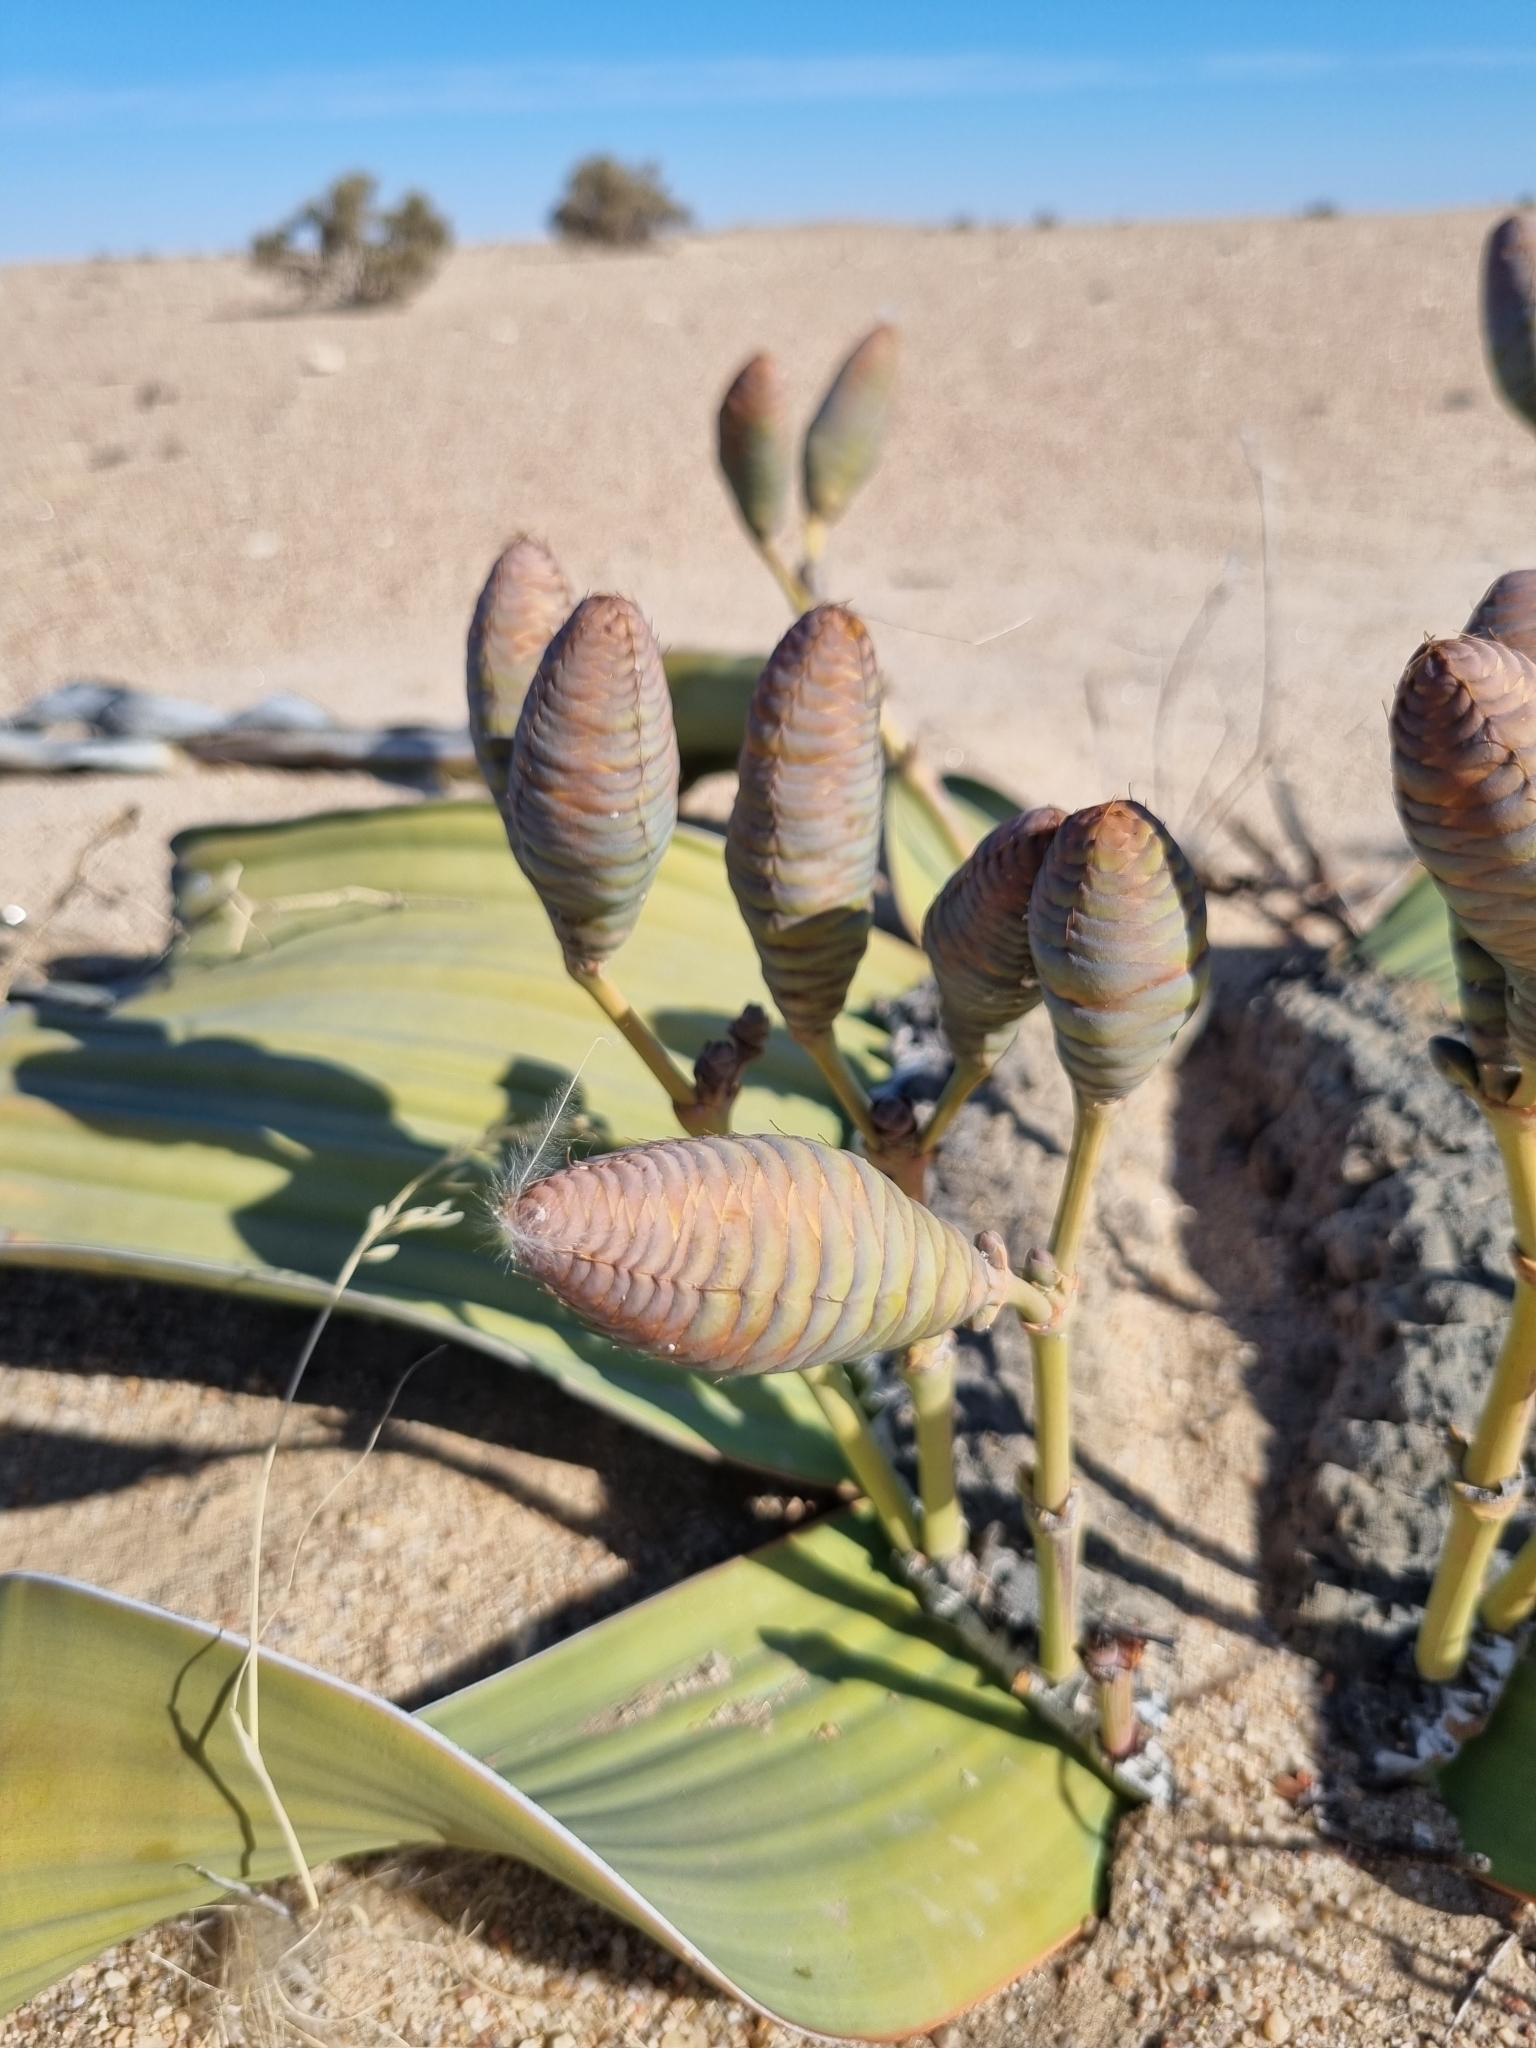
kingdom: Plantae
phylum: Tracheophyta
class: Gnetopsida
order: Welwitschiales
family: Welwitschiaceae
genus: Welwitschia
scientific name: Welwitschia mirabilis
